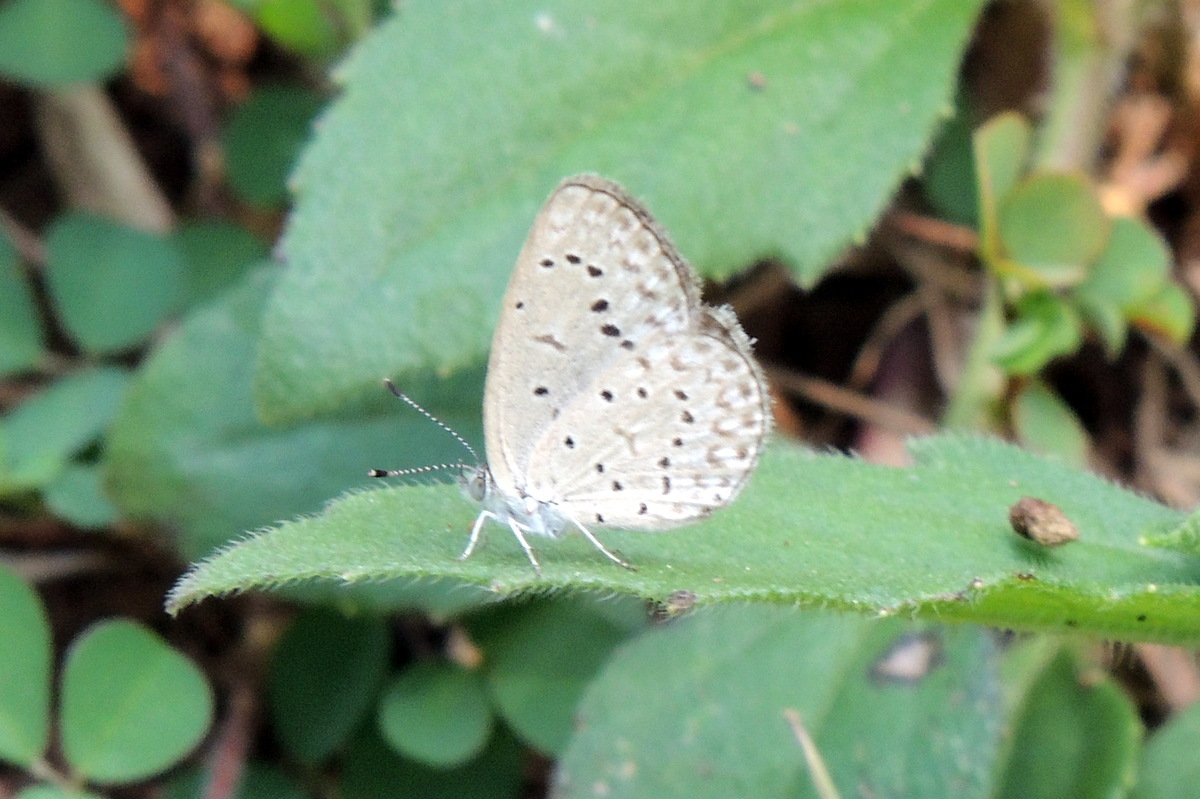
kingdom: Animalia
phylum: Arthropoda
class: Insecta
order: Lepidoptera
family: Lycaenidae
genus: Zizeeria
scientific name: Zizeeria knysna
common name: African grass blue
